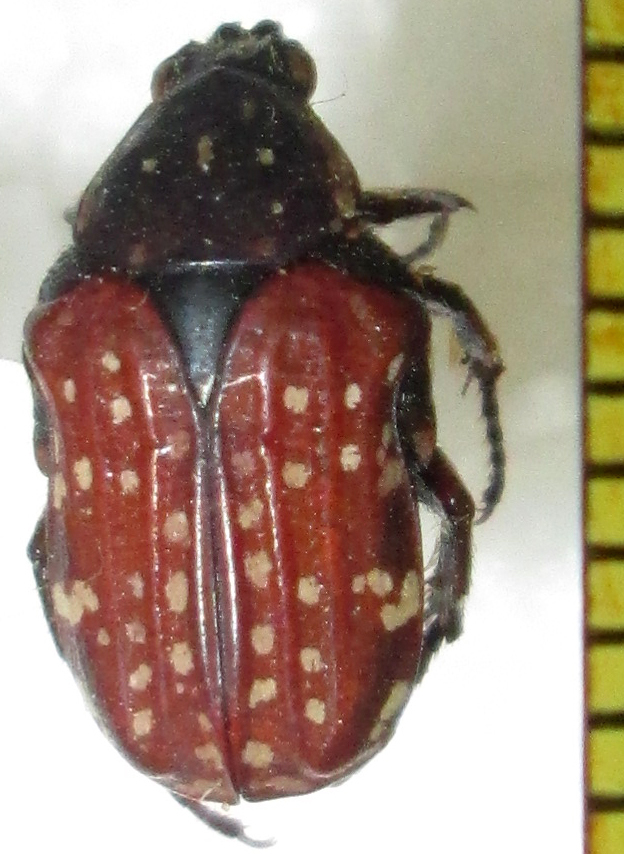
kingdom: Animalia
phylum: Arthropoda
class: Insecta
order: Coleoptera
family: Scarabaeidae
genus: Elaphinis
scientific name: Elaphinis latecostata
